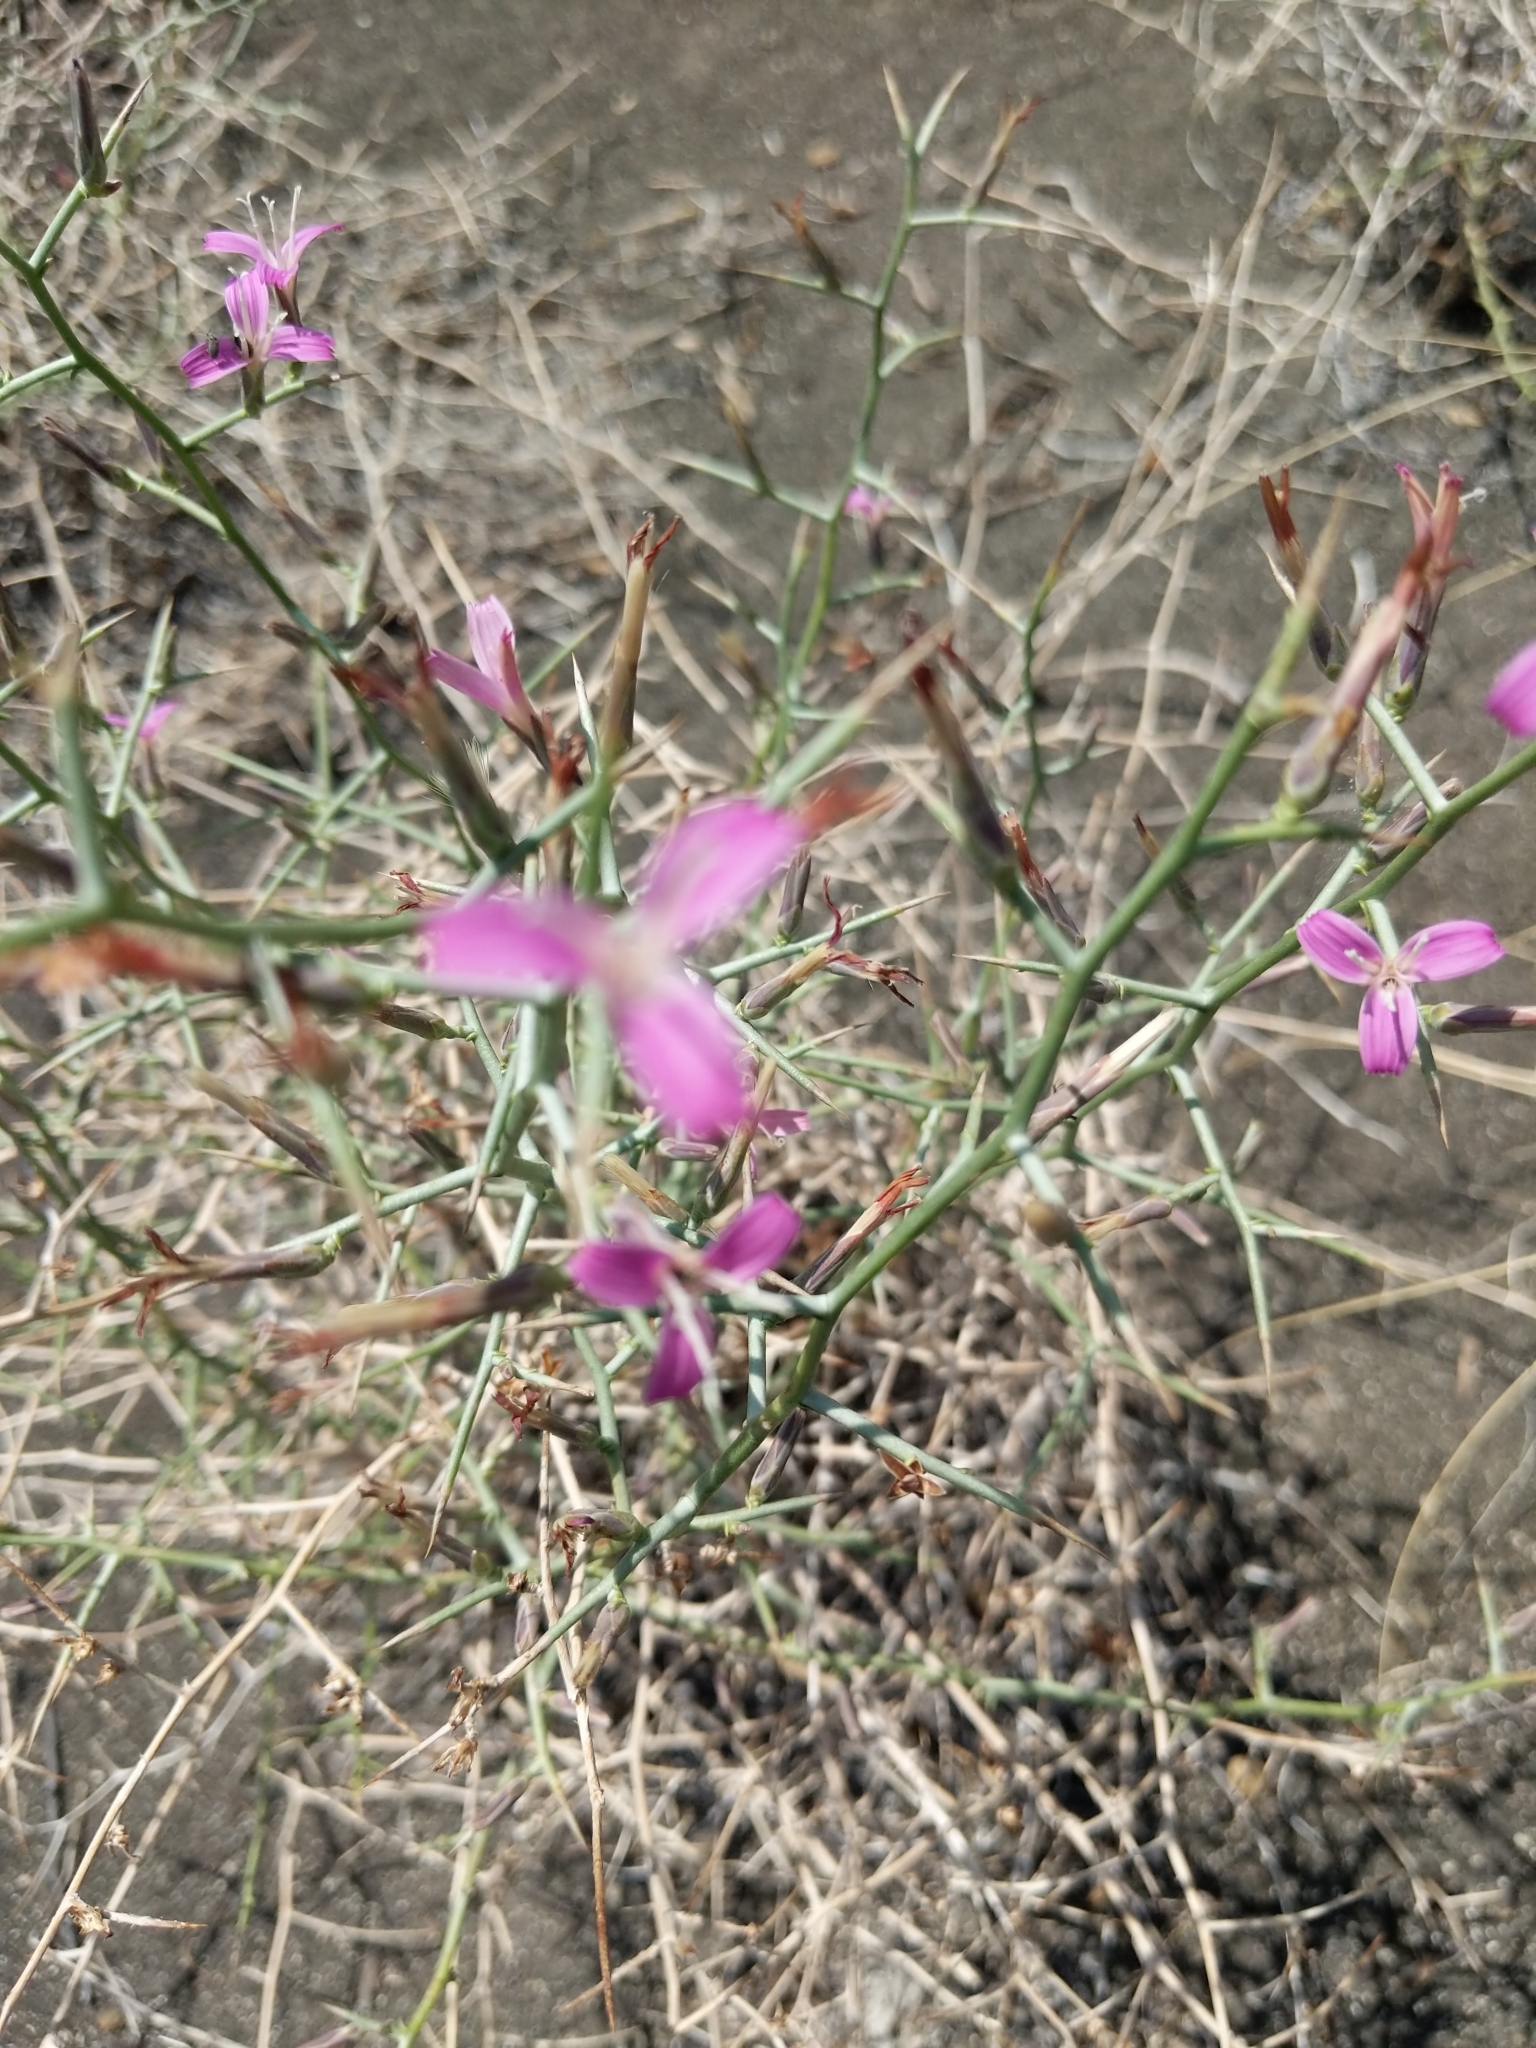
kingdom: Plantae
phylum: Tracheophyta
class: Magnoliopsida
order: Asterales
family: Asteraceae
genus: Pleiacanthus
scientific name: Pleiacanthus spinosus
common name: Thorny skeleton-weed
